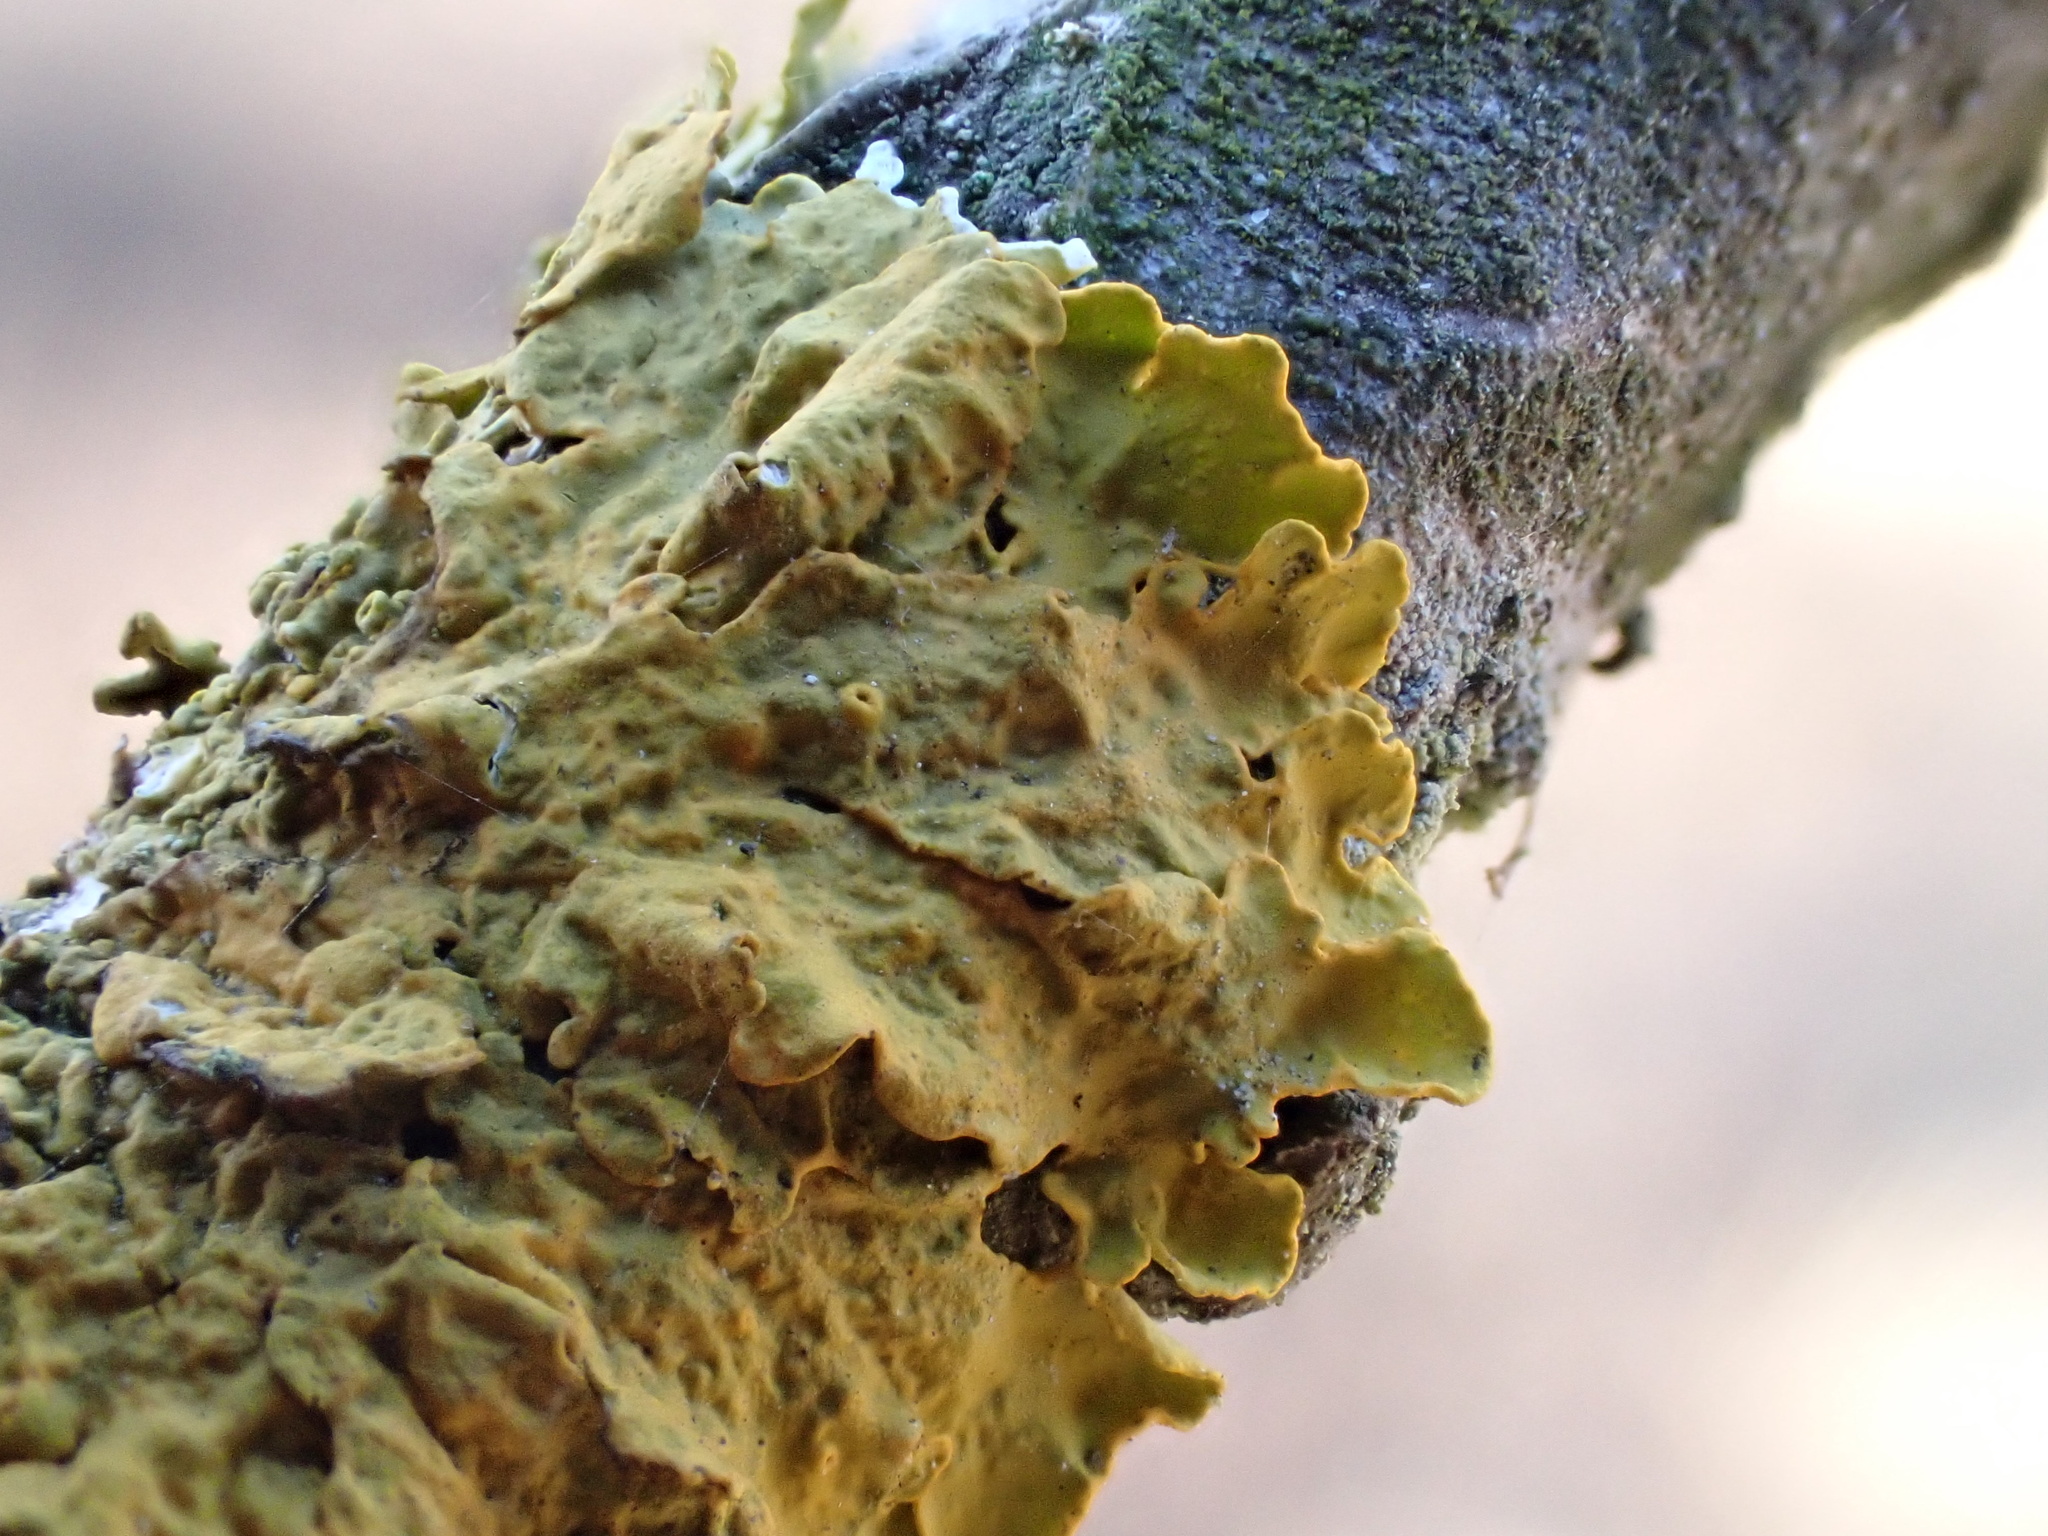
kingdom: Fungi
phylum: Ascomycota
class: Lecanoromycetes
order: Teloschistales
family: Teloschistaceae
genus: Xanthoria
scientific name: Xanthoria parietina
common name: Common orange lichen
